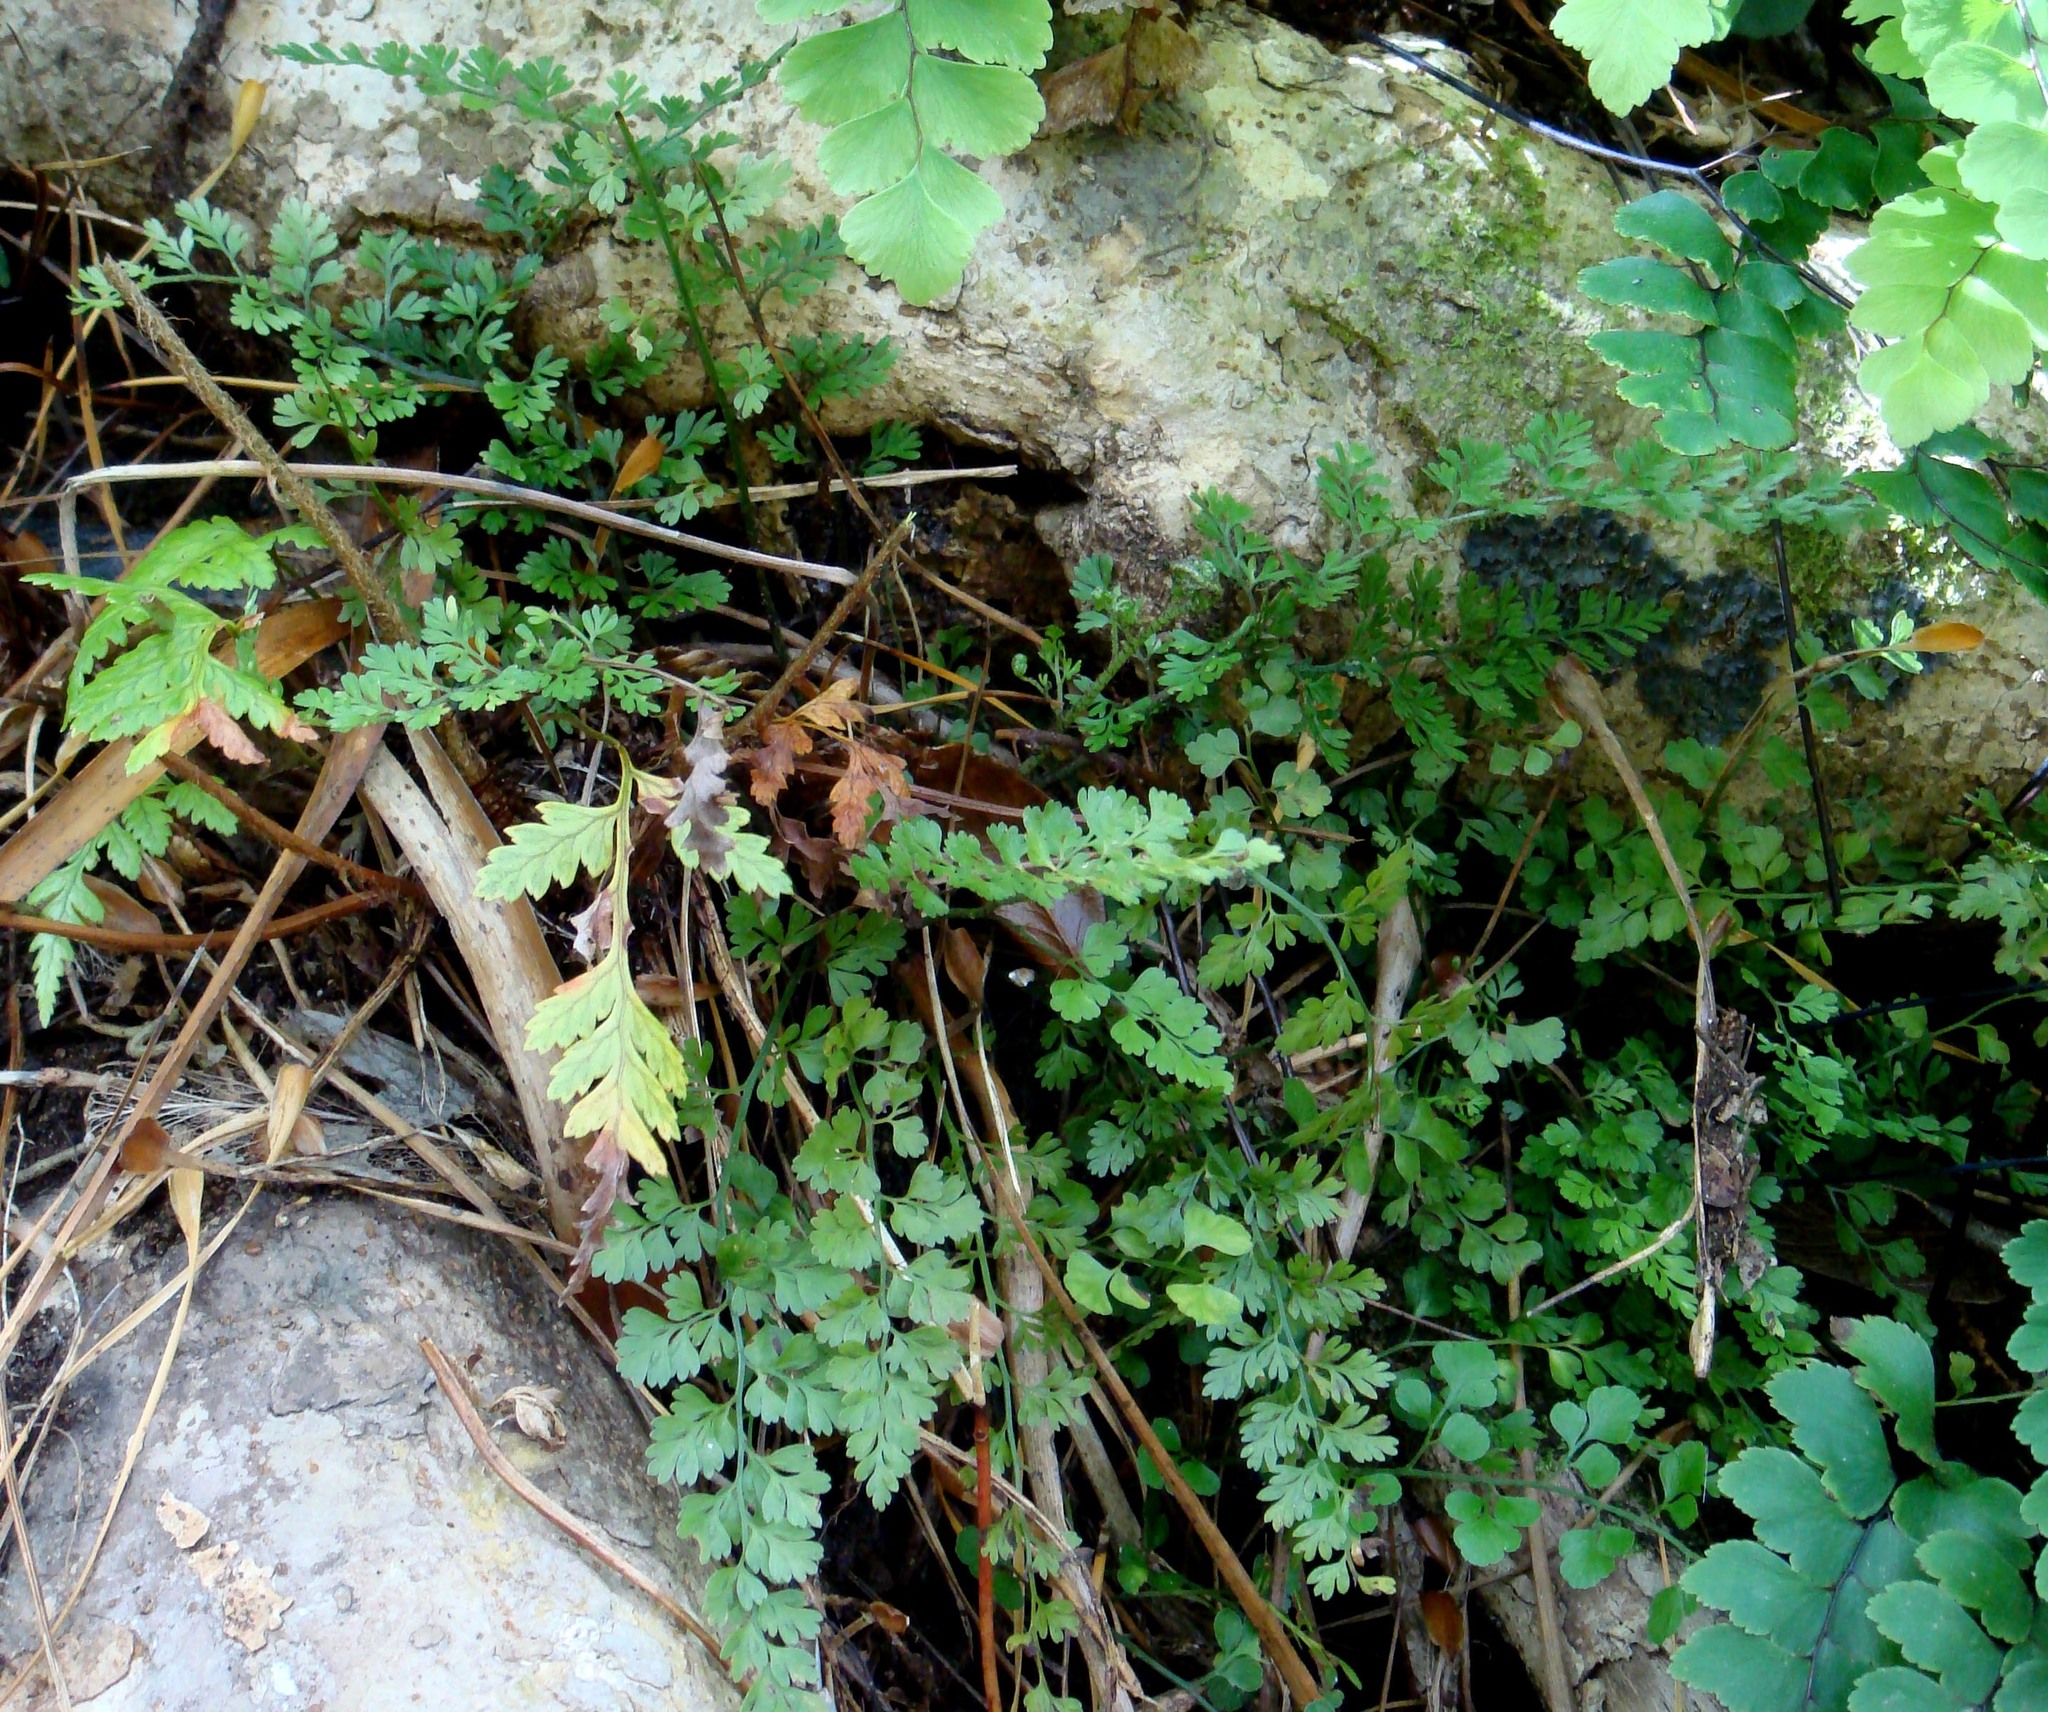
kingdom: Plantae
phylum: Tracheophyta
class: Polypodiopsida
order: Polypodiales
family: Aspleniaceae
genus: Asplenium
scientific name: Asplenium hookerianum
